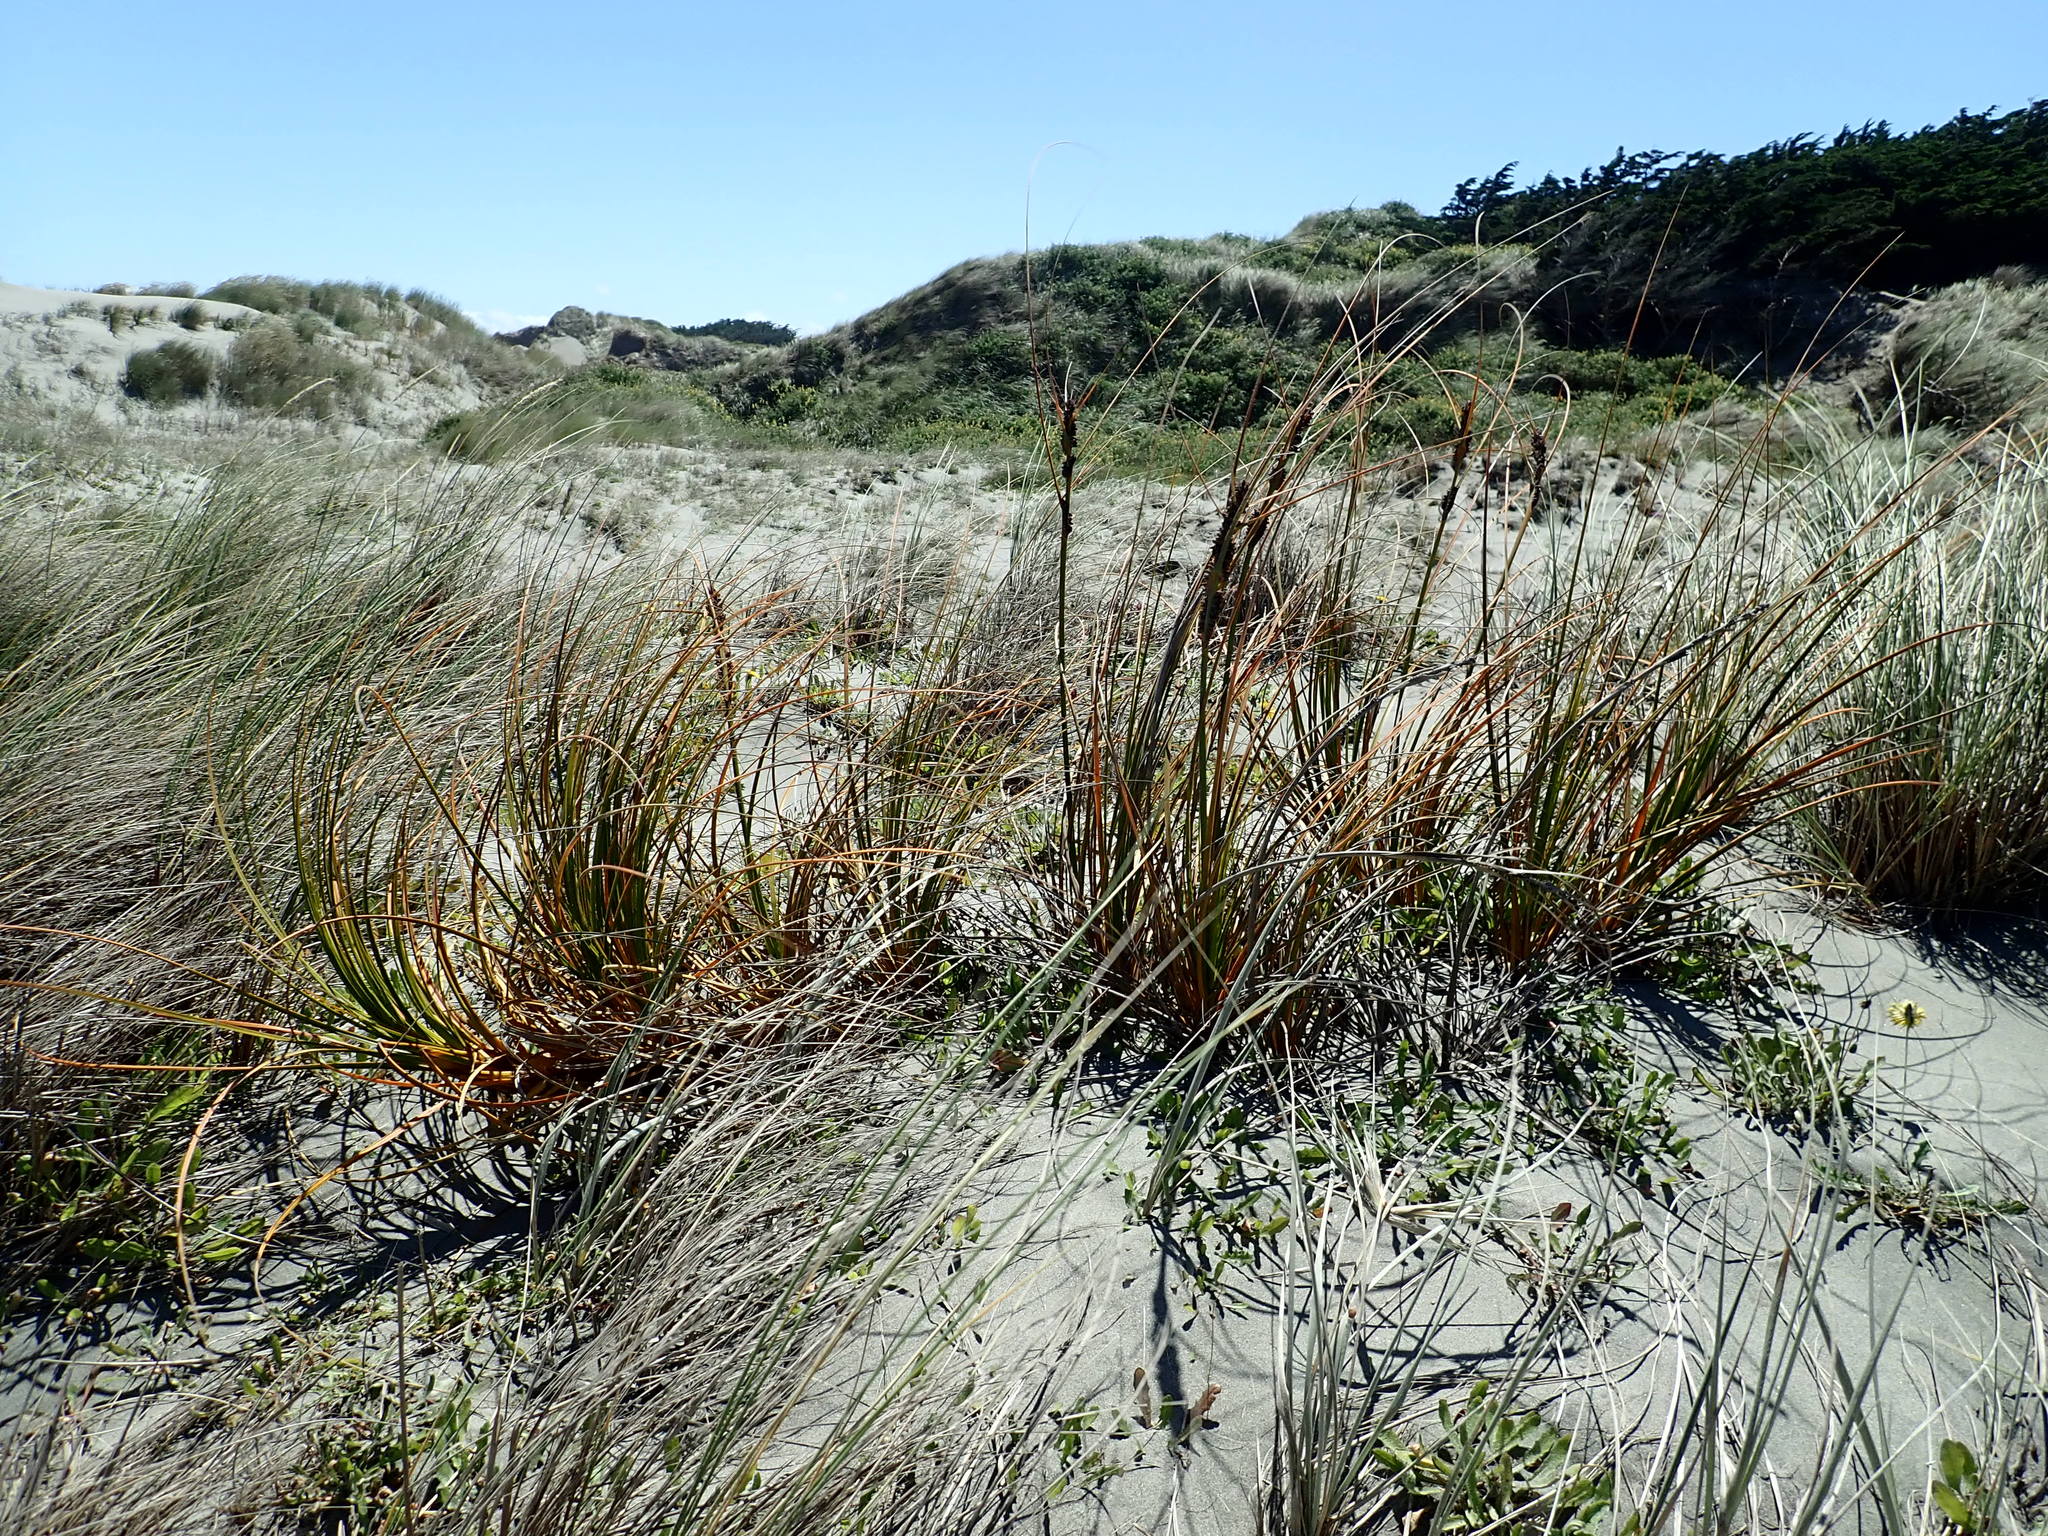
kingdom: Plantae
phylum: Tracheophyta
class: Liliopsida
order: Poales
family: Cyperaceae
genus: Ficinia
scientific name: Ficinia spiralis
